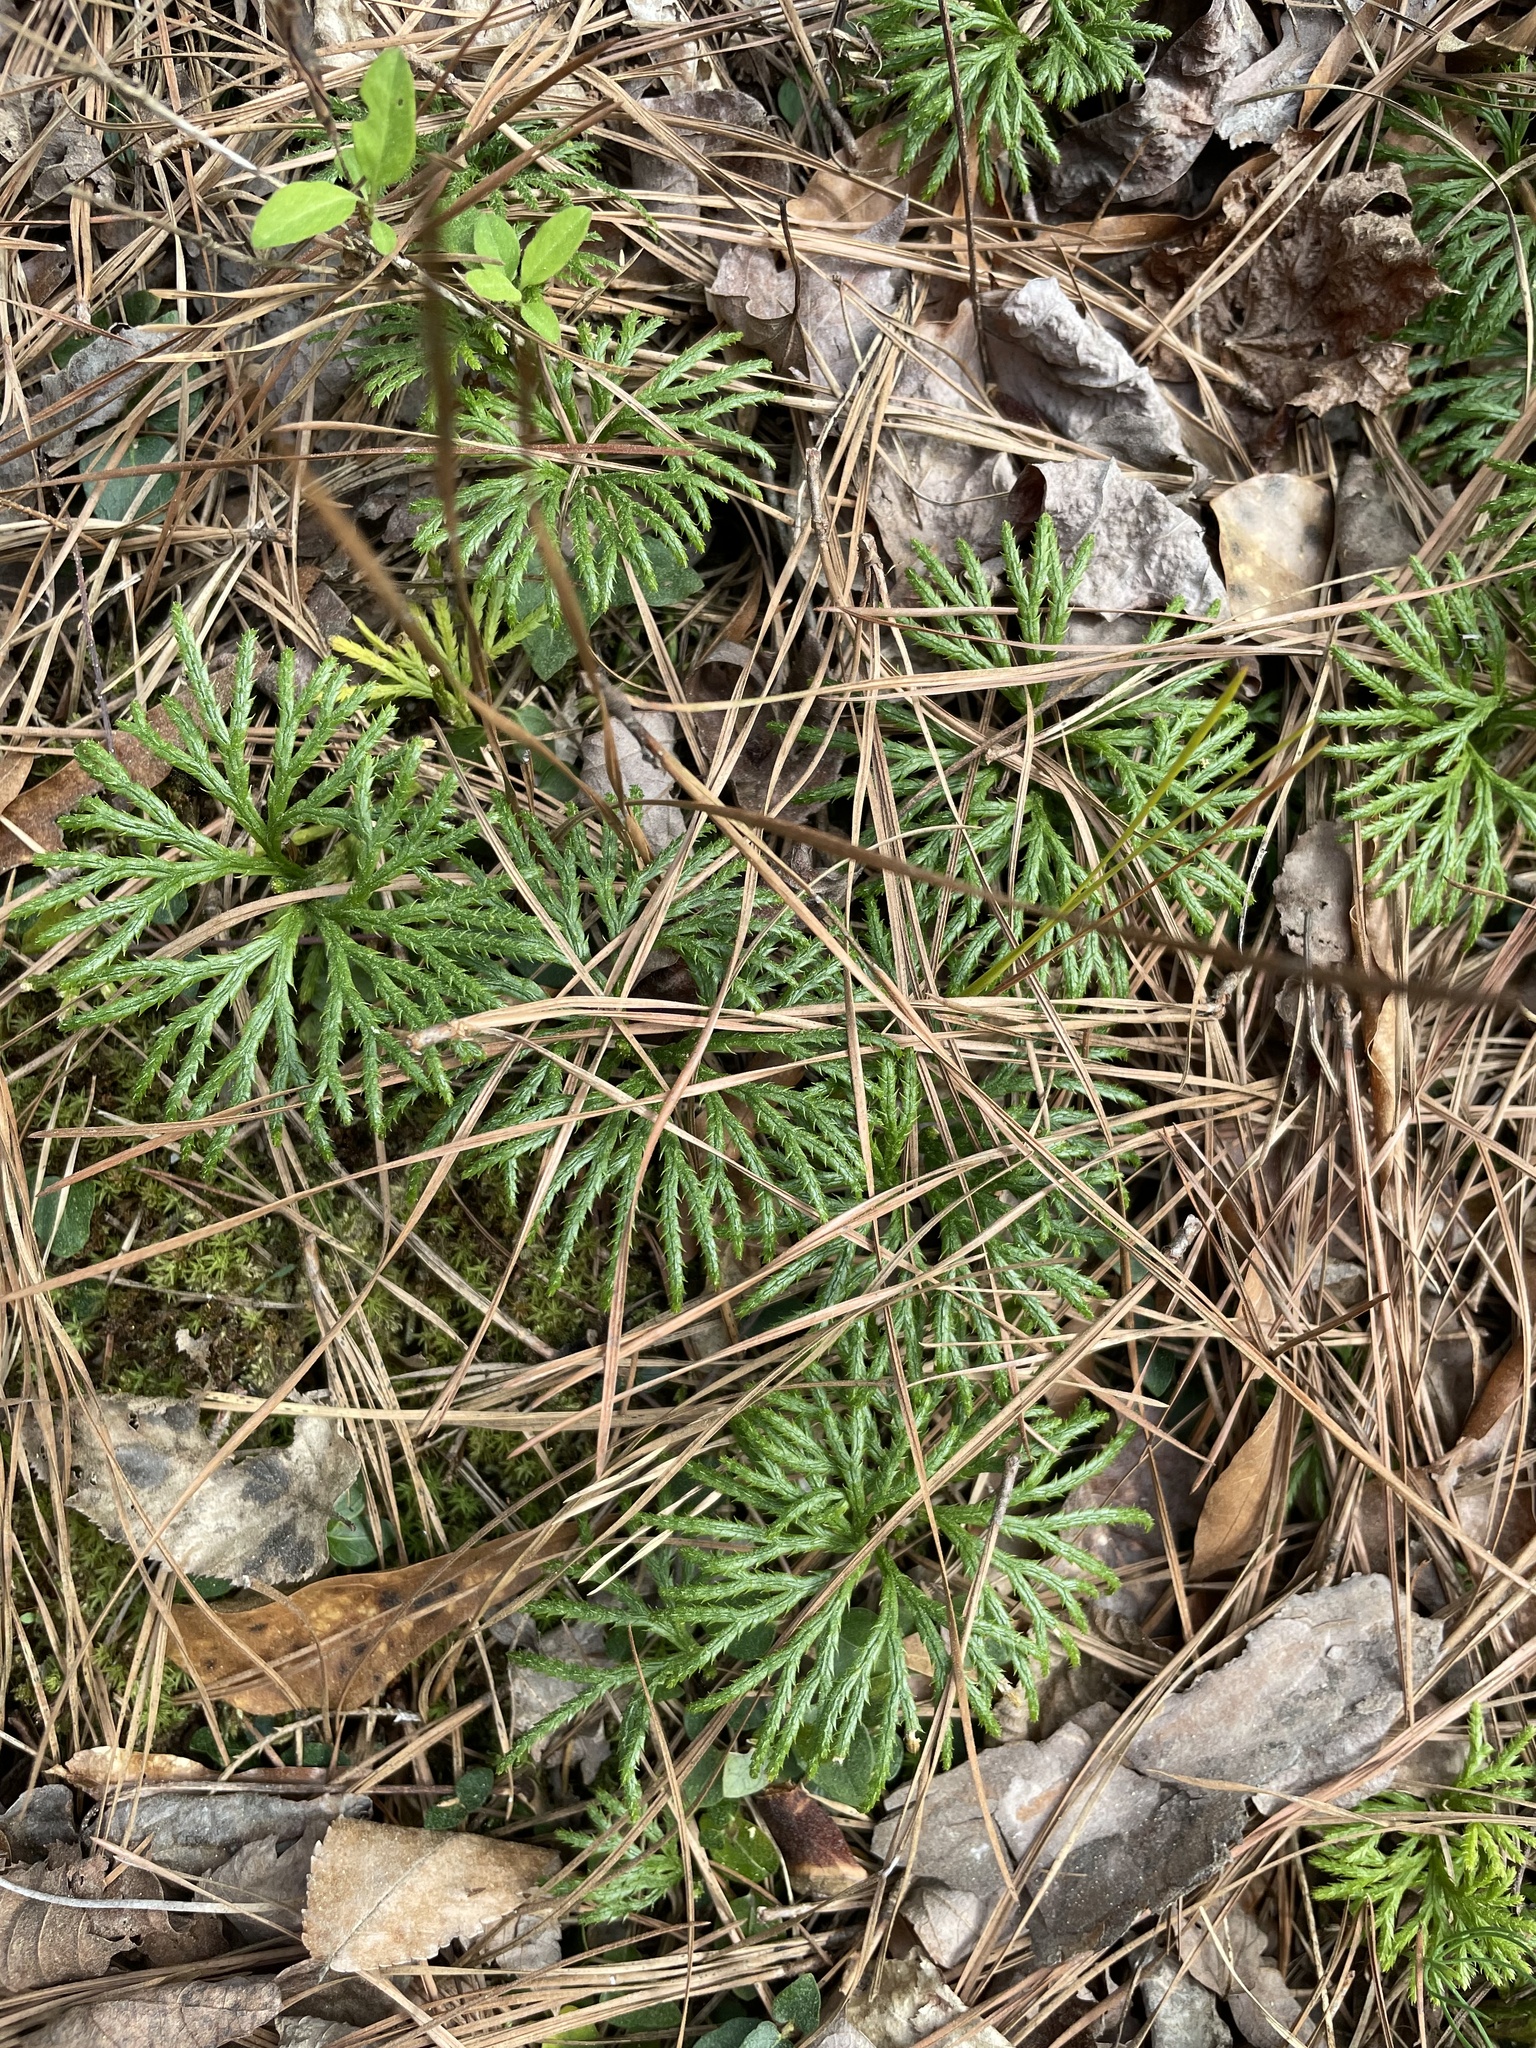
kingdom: Plantae
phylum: Tracheophyta
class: Lycopodiopsida
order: Lycopodiales
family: Lycopodiaceae
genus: Diphasiastrum
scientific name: Diphasiastrum digitatum
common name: Southern running-pine
